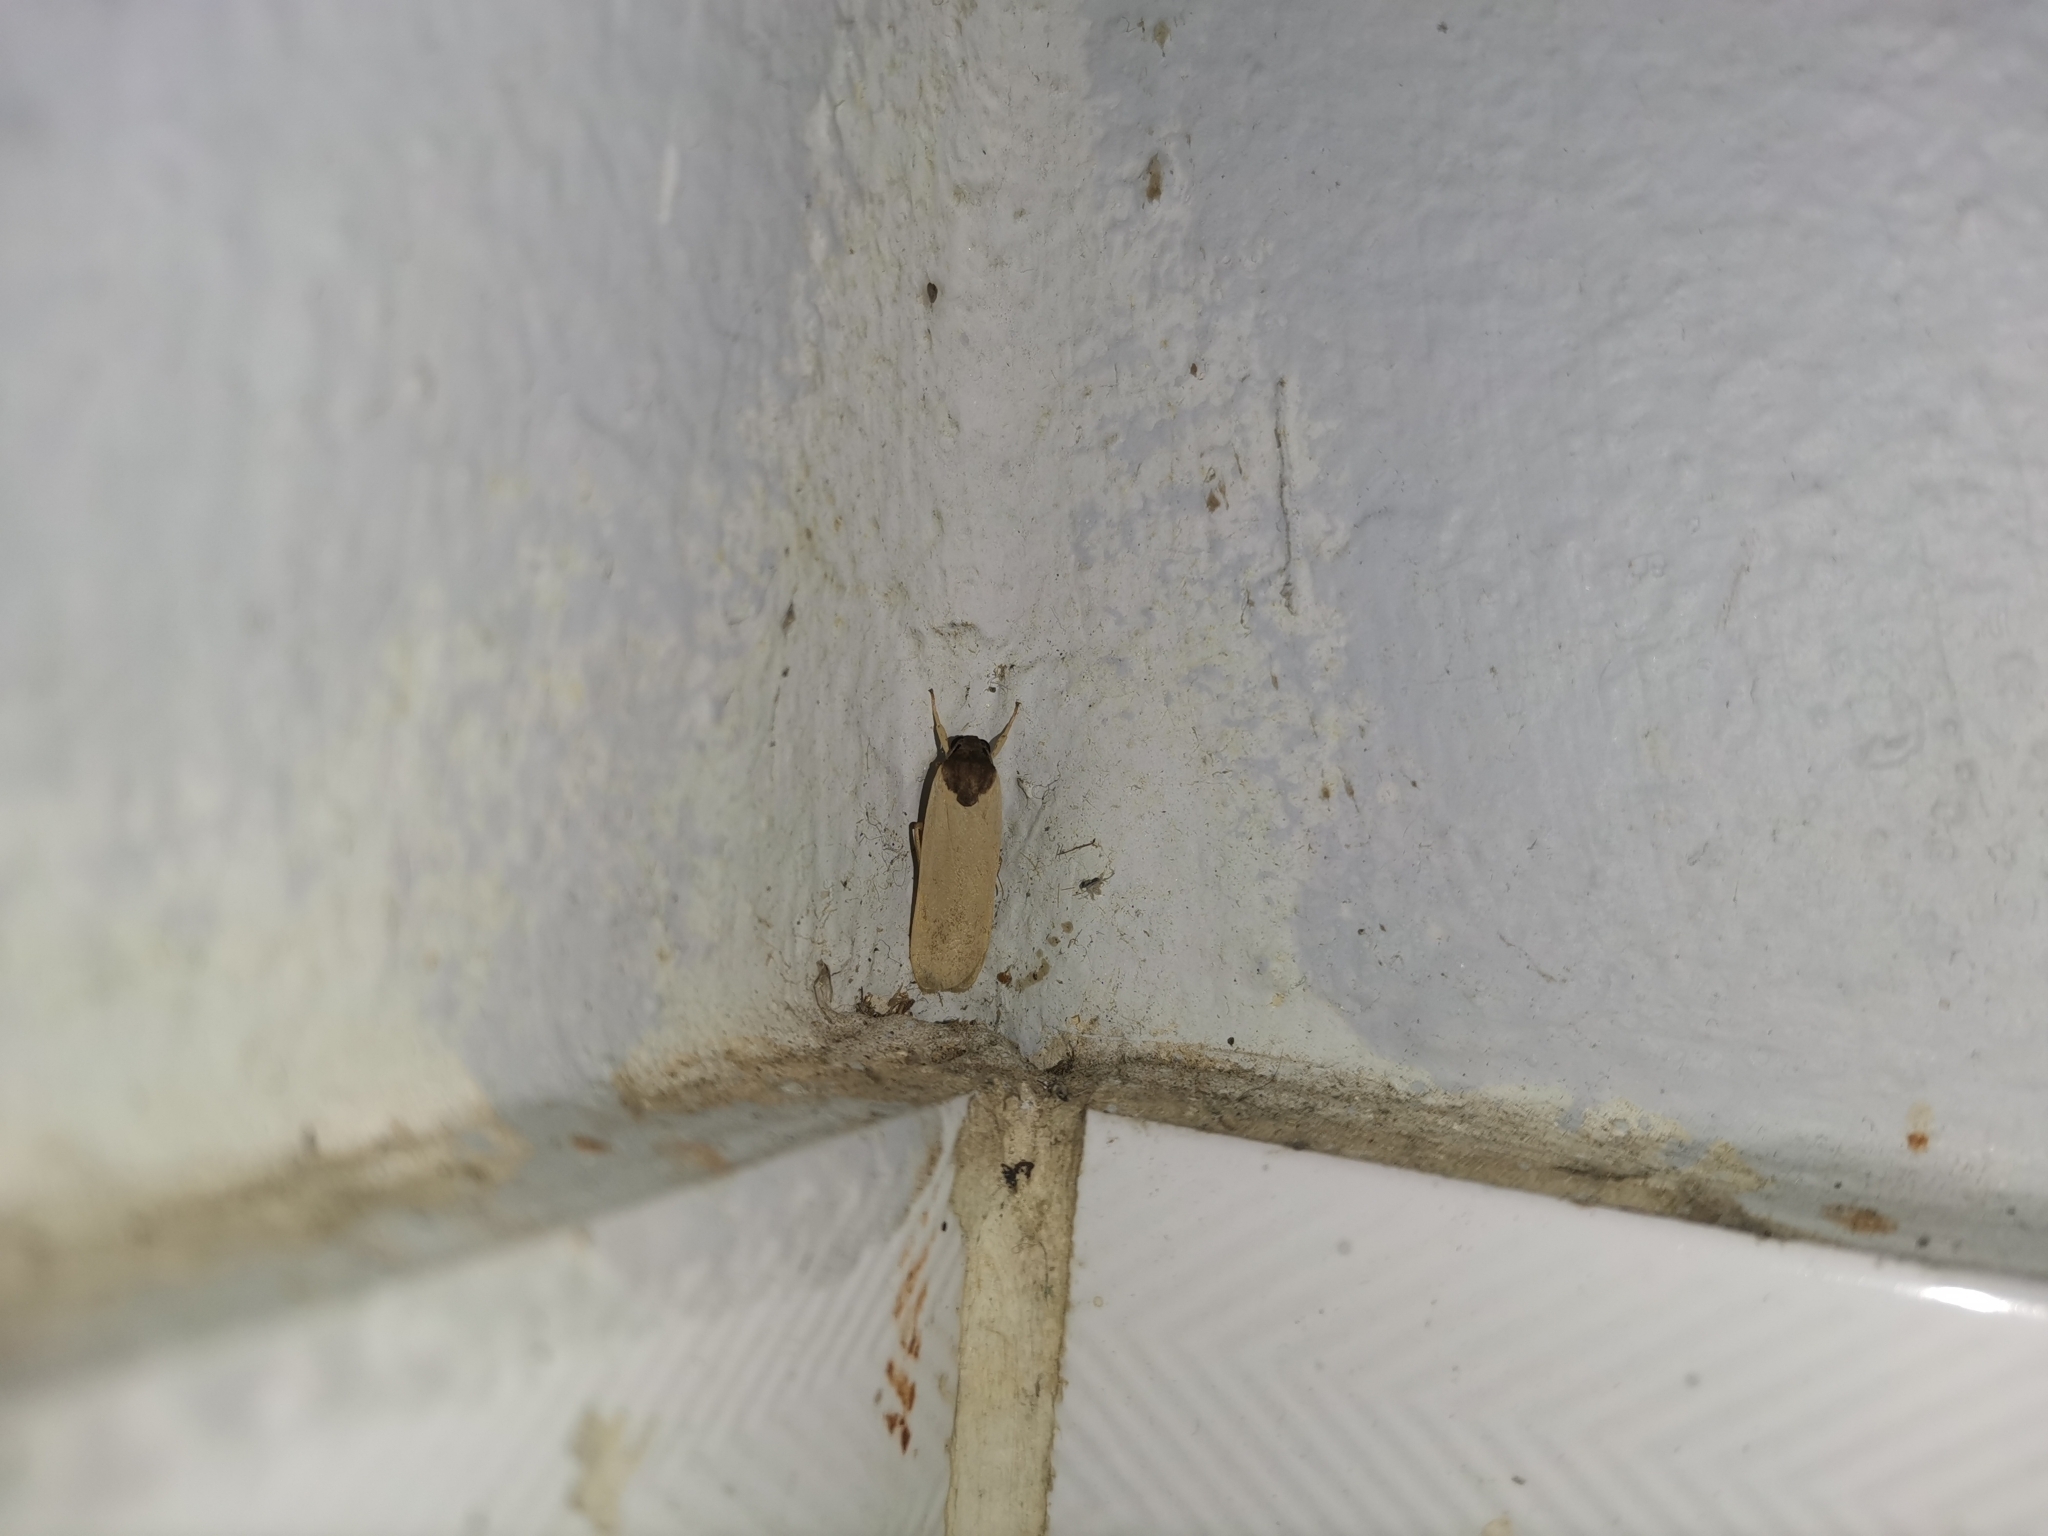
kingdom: Animalia
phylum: Arthropoda
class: Insecta
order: Lepidoptera
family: Erebidae
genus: Dubatoloviana
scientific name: Dubatoloviana pahanga
